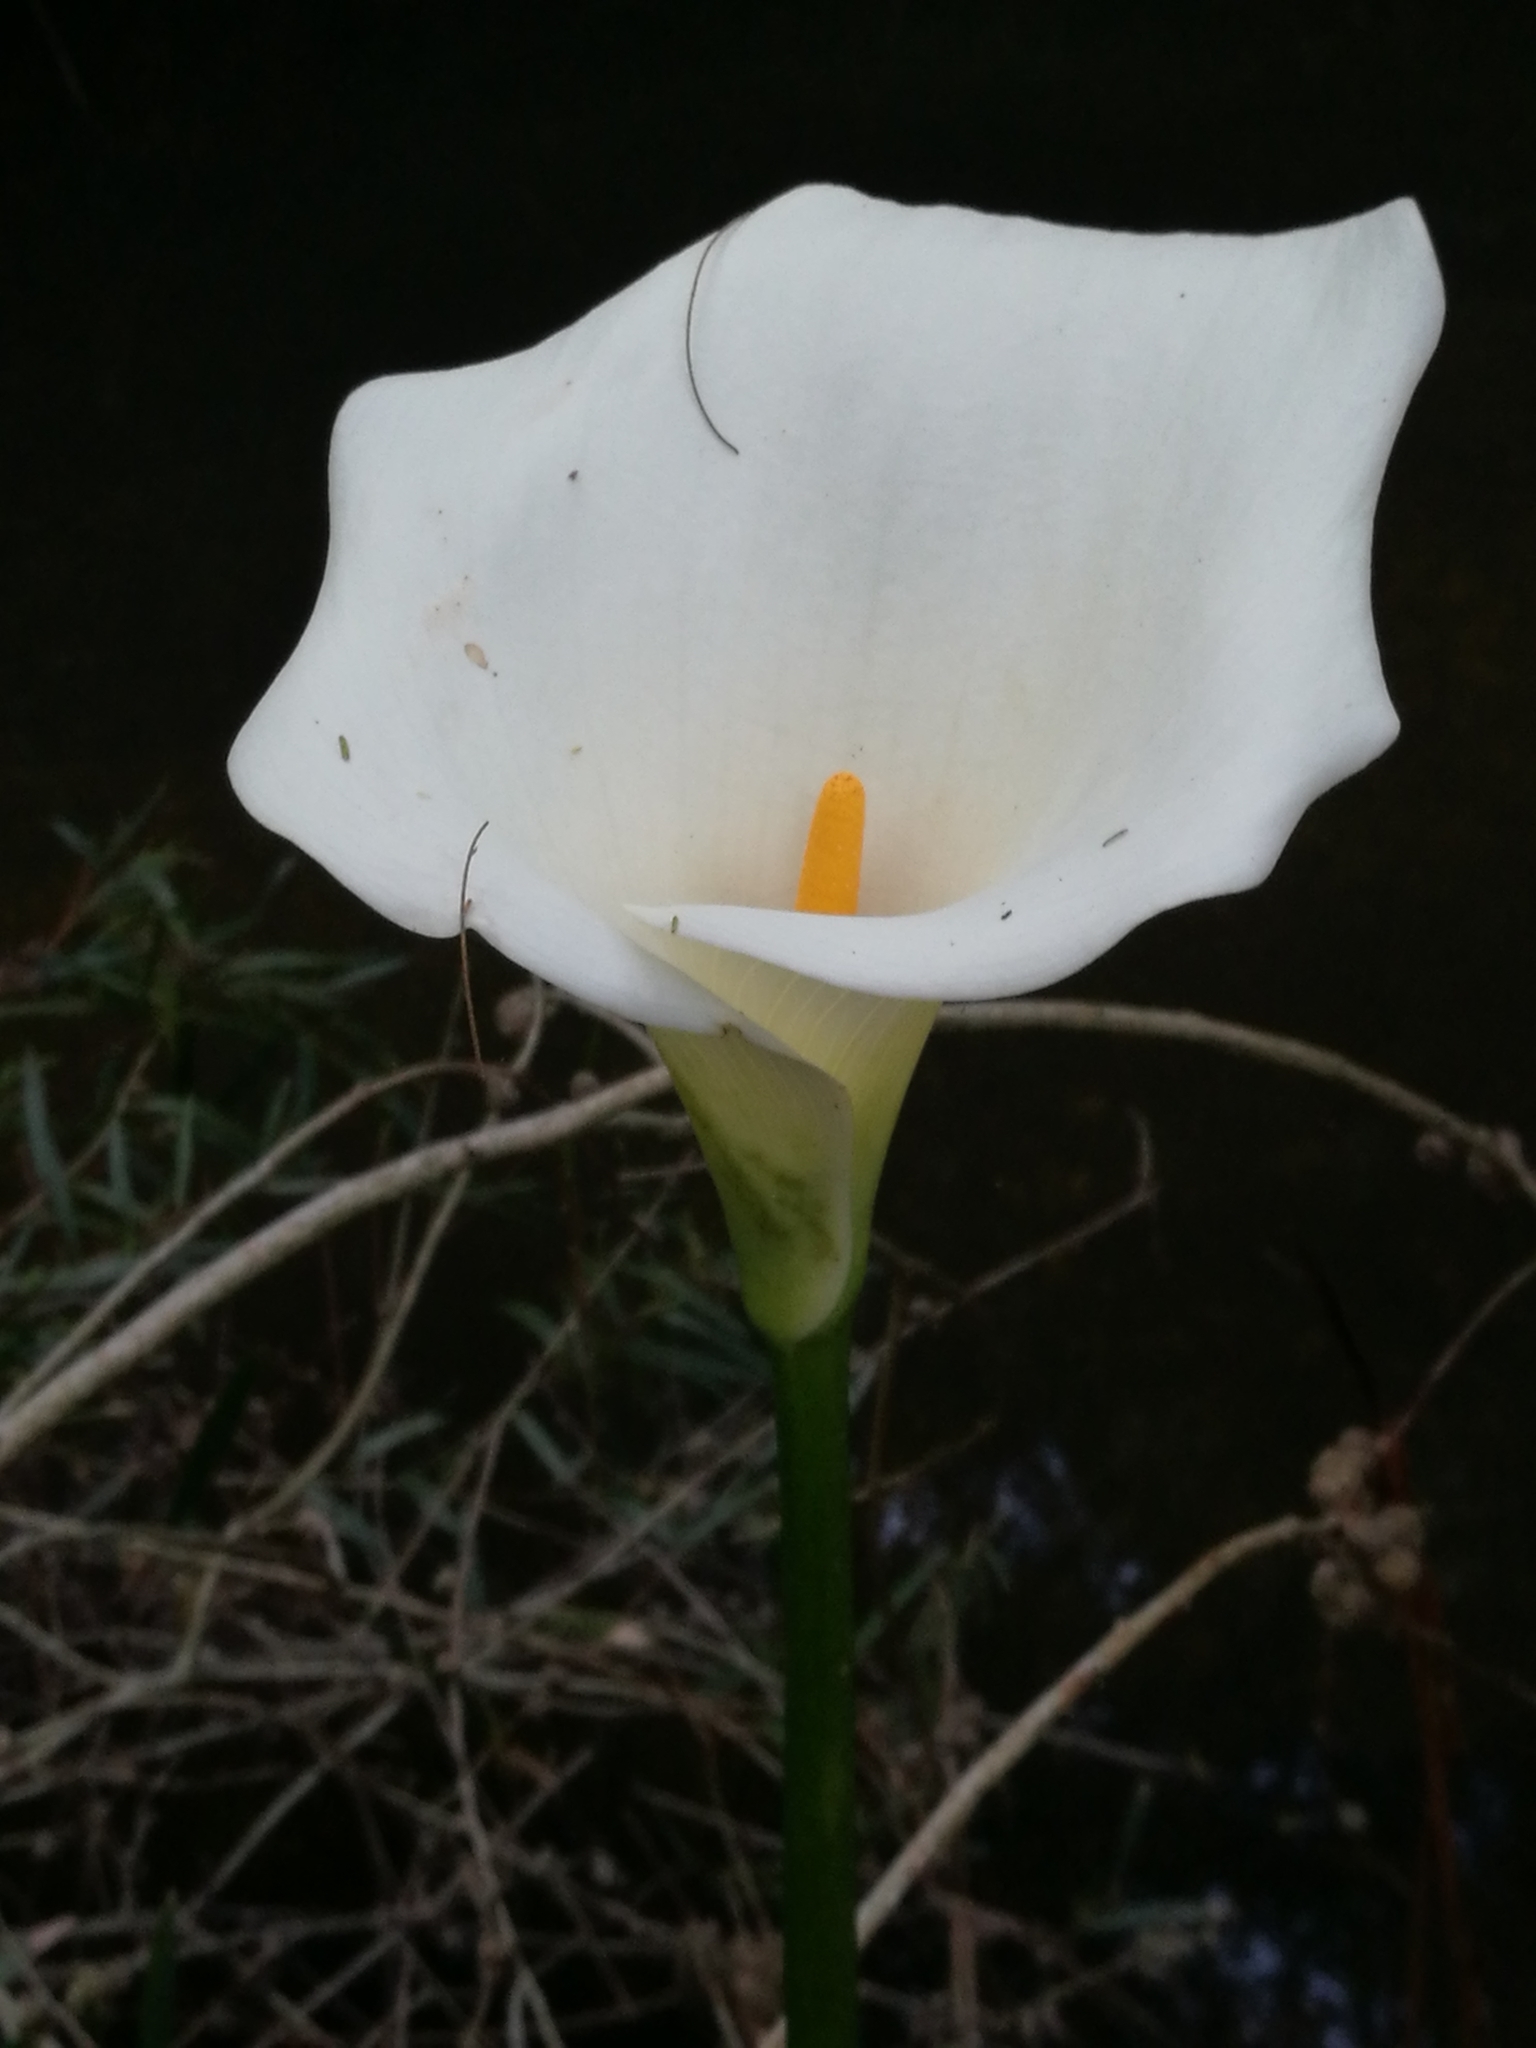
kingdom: Plantae
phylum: Tracheophyta
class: Liliopsida
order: Alismatales
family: Araceae
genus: Zantedeschia
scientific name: Zantedeschia aethiopica
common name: Altar-lily
